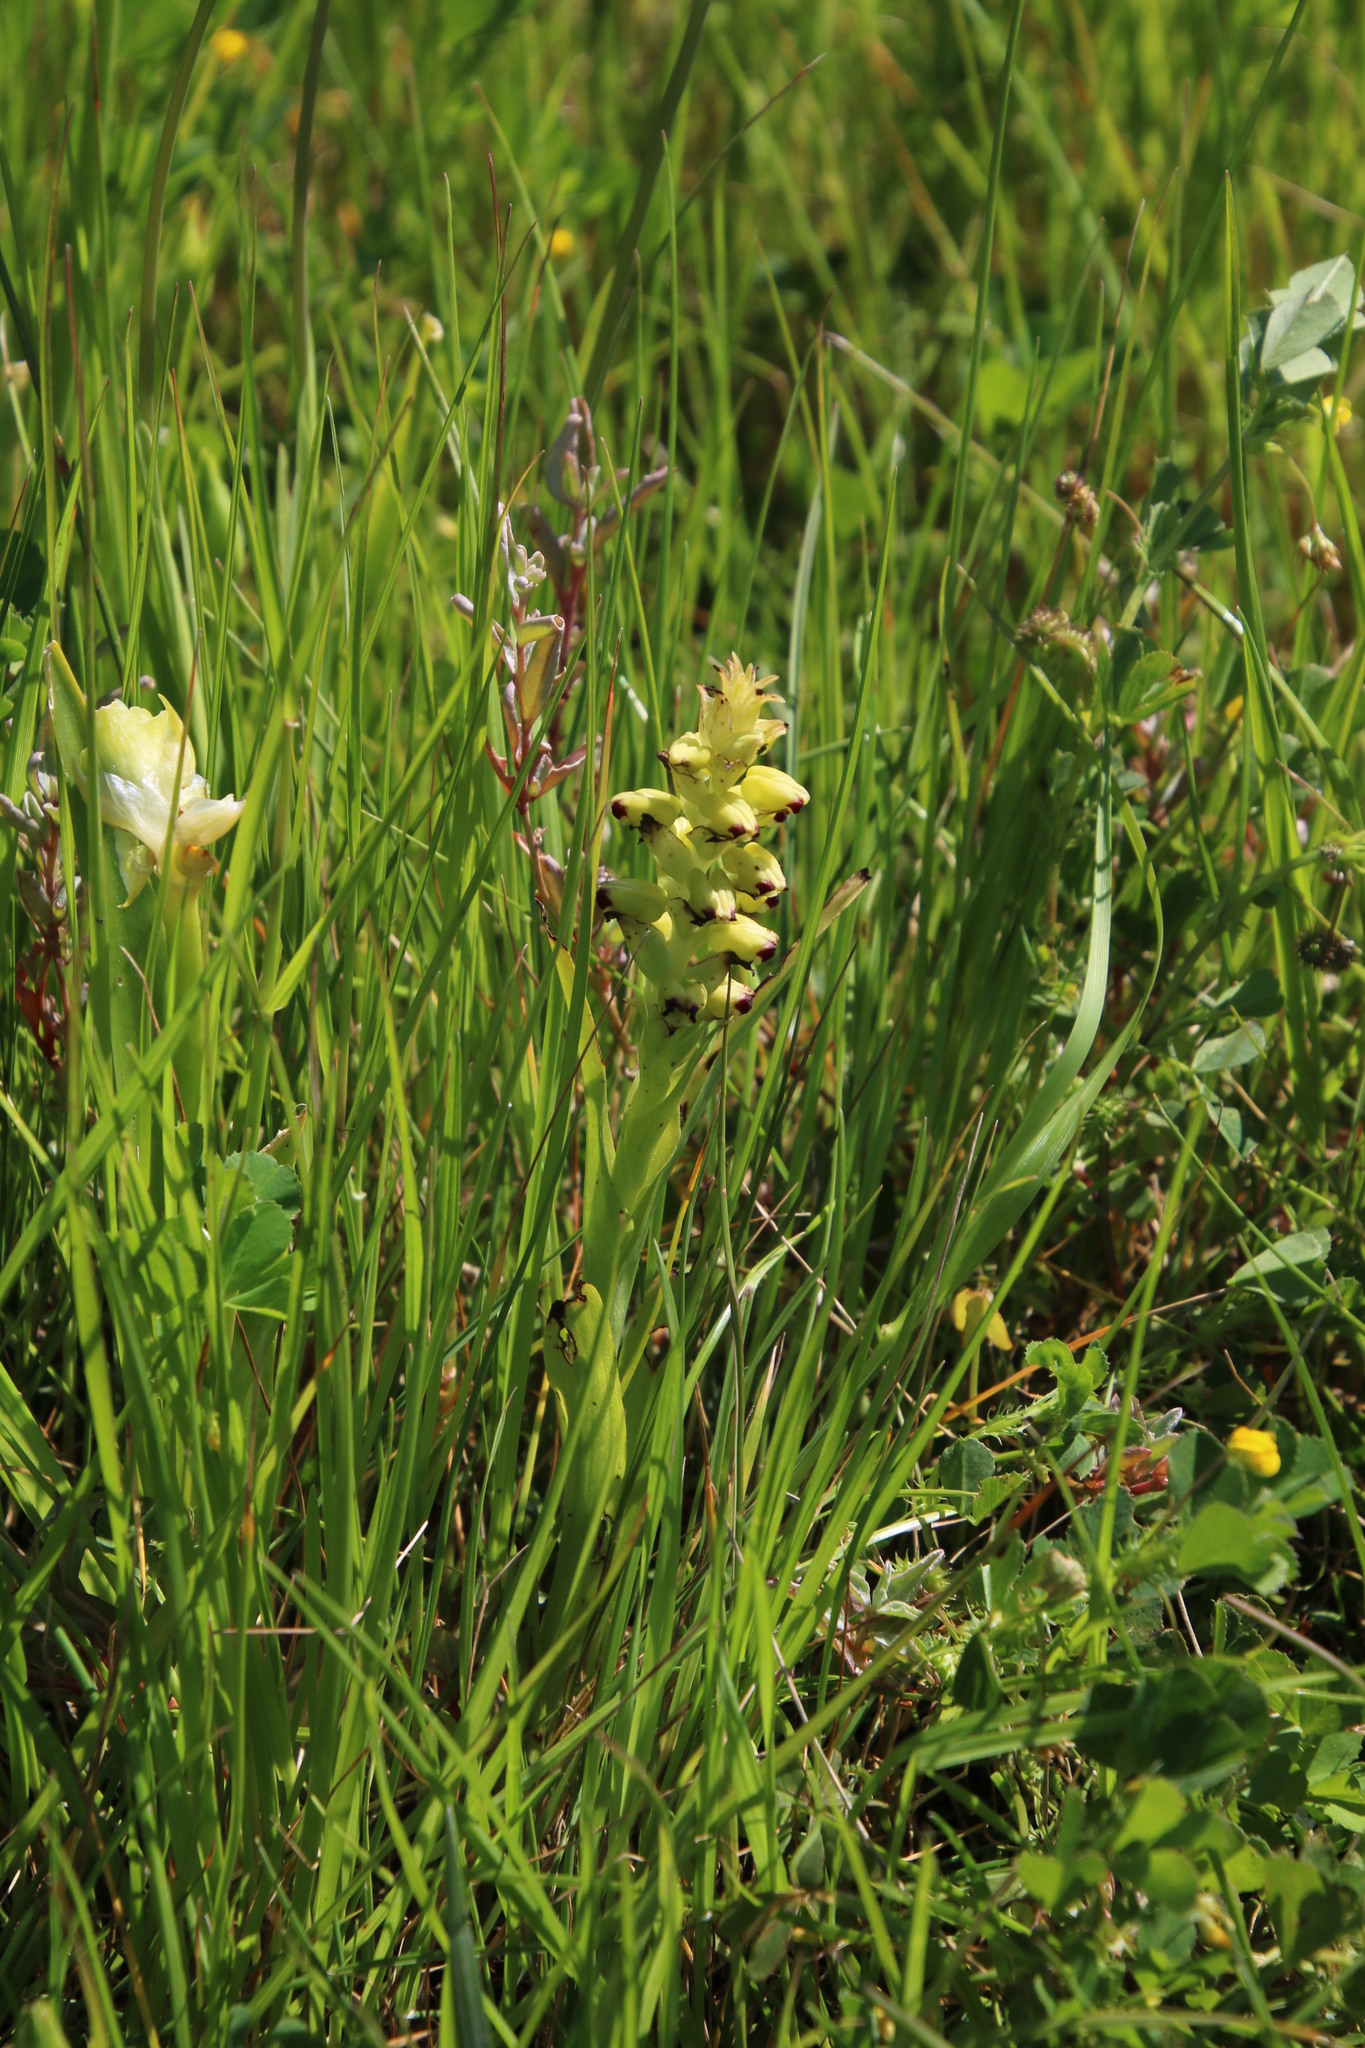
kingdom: Plantae
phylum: Tracheophyta
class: Liliopsida
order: Asparagales
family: Orchidaceae
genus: Corycium
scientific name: Corycium orobanchoides
